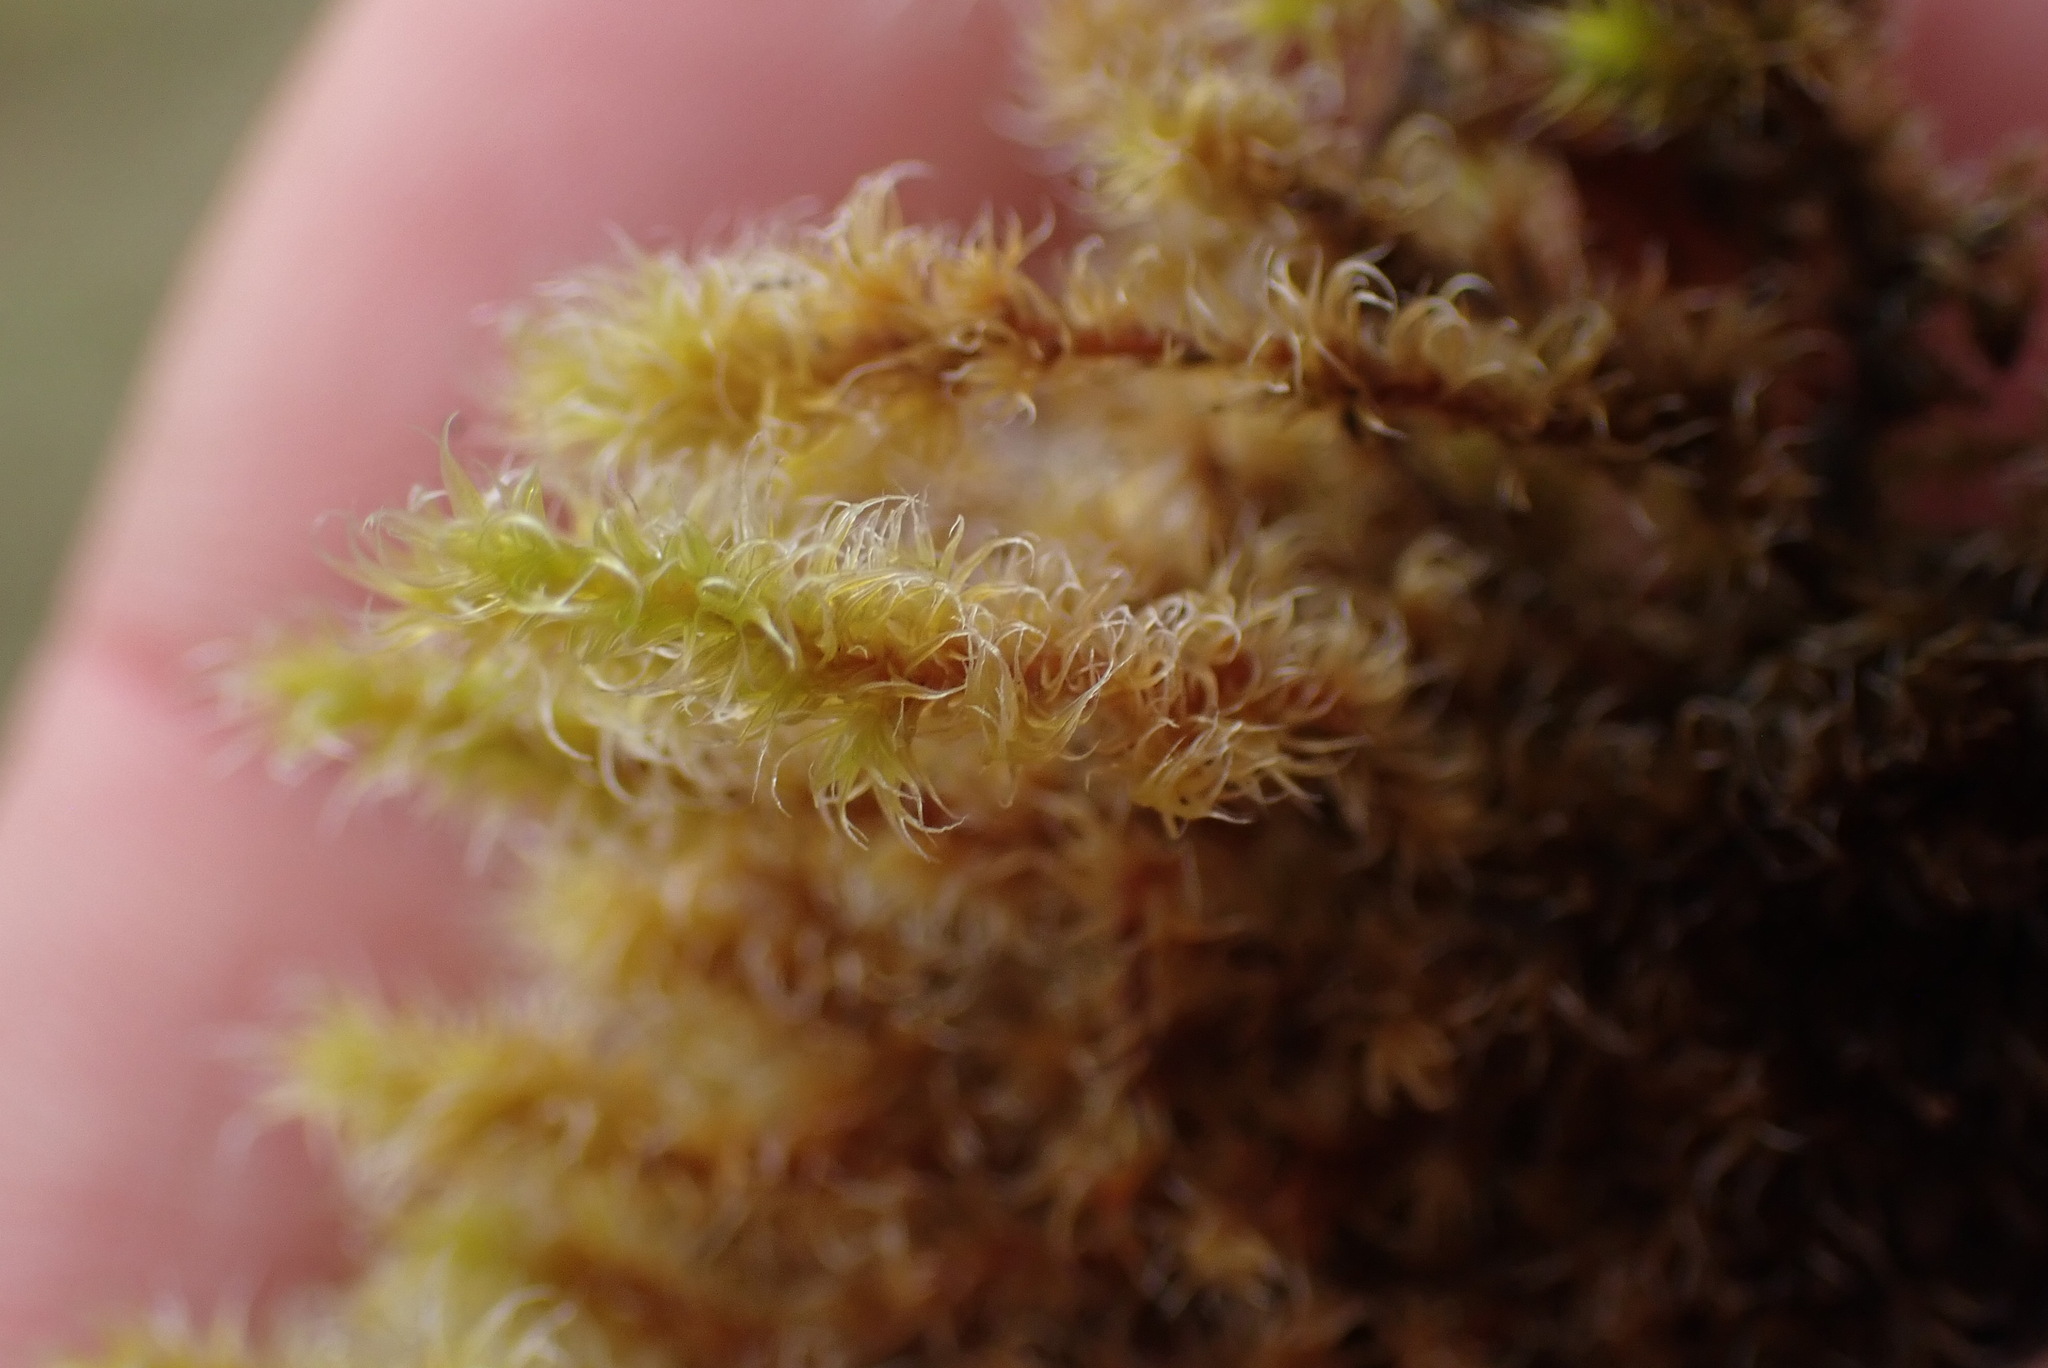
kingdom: Plantae
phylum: Bryophyta
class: Bryopsida
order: Grimmiales
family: Grimmiaceae
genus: Niphotrichum
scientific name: Niphotrichum elongatum
